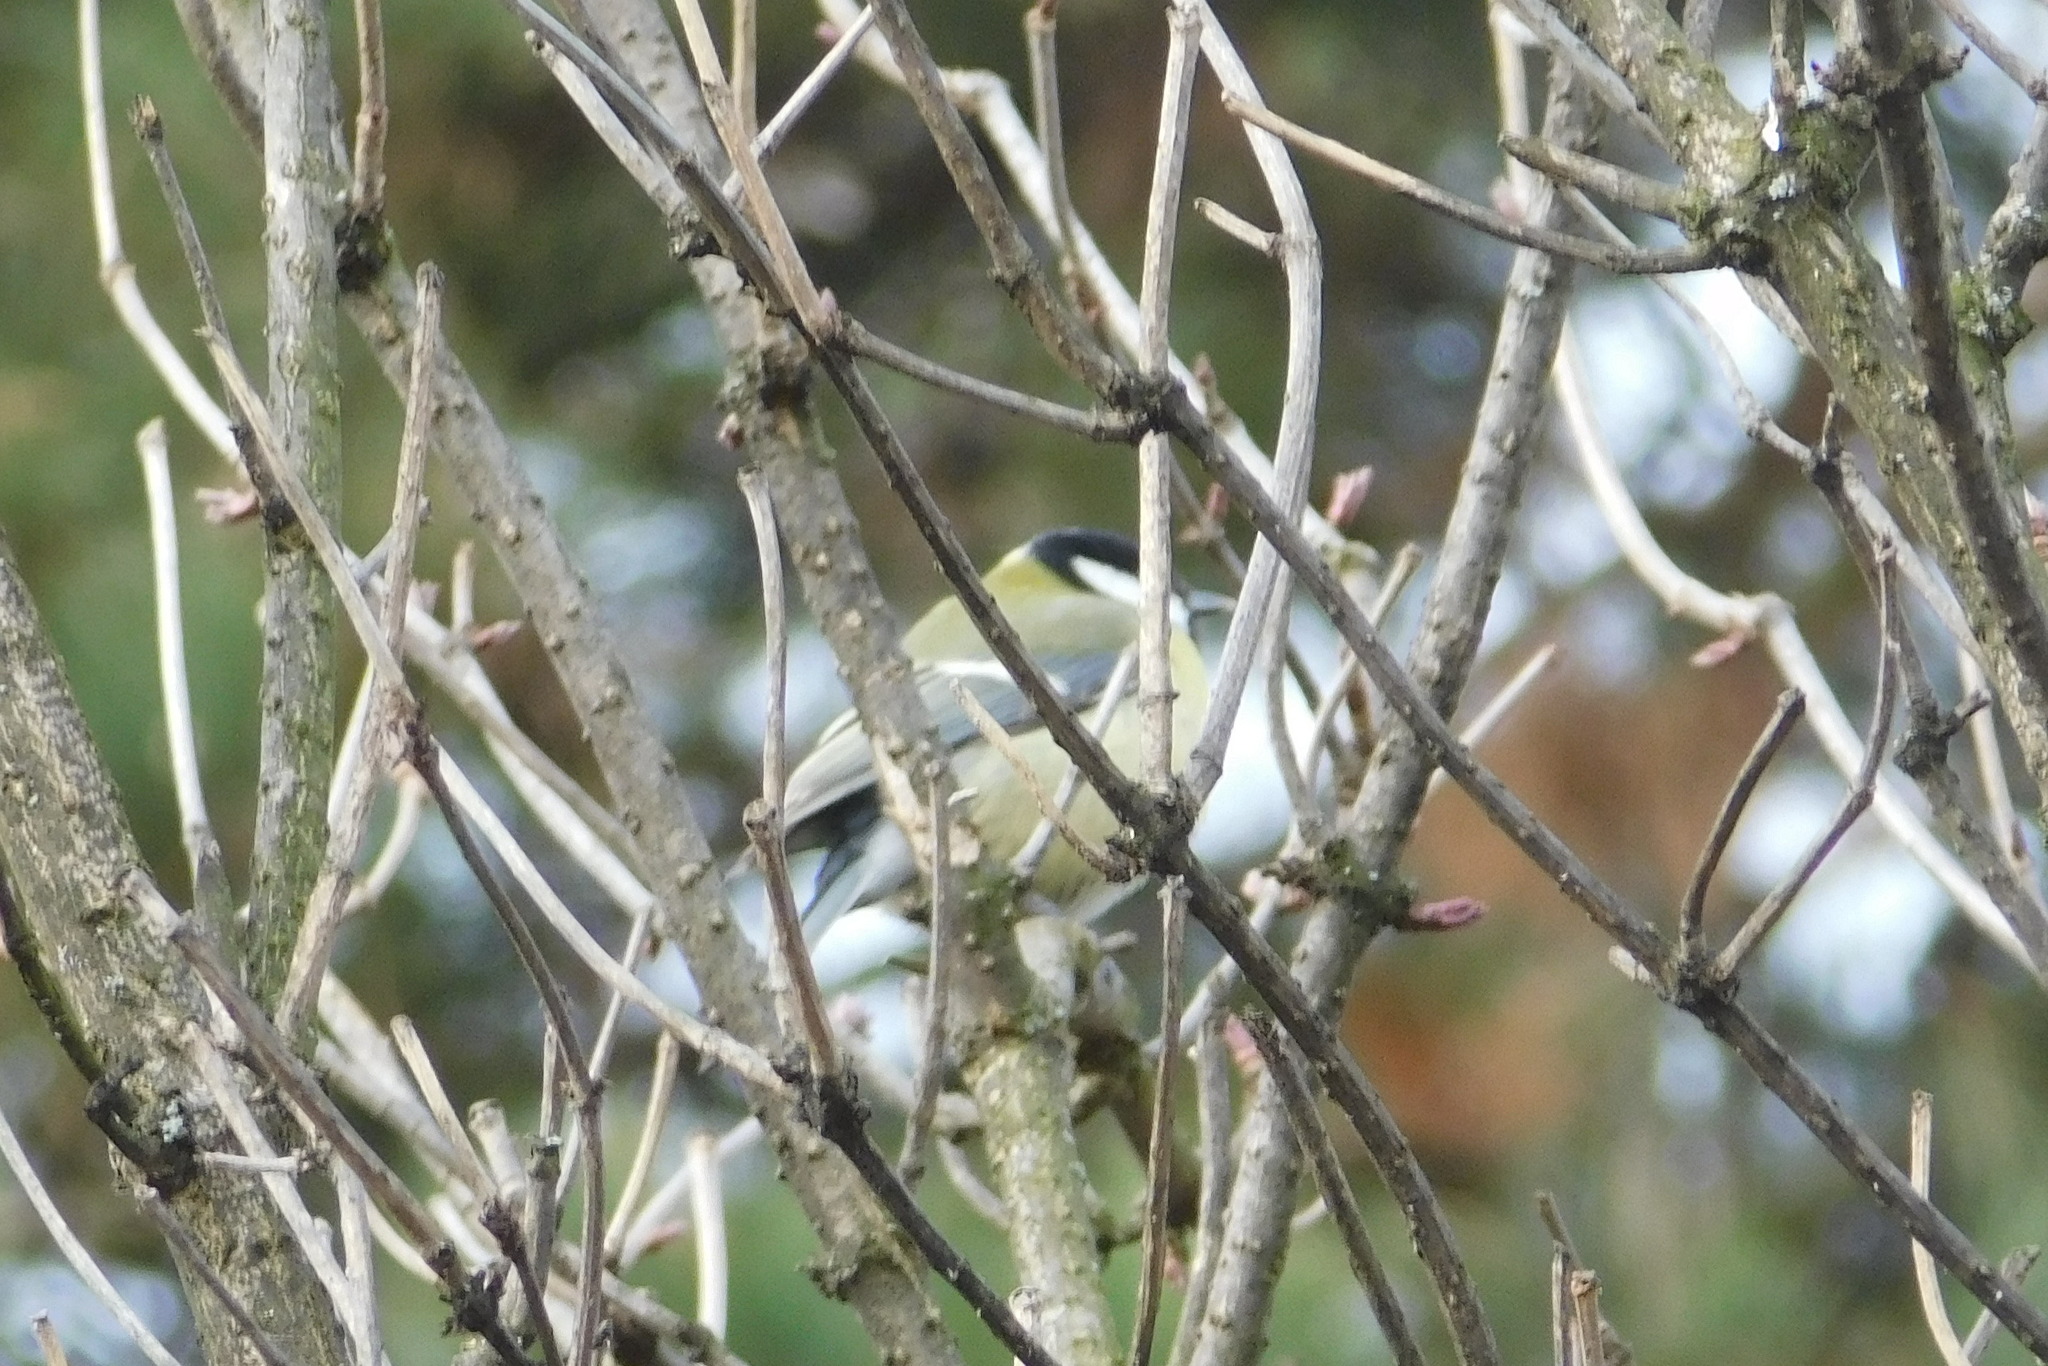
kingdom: Animalia
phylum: Chordata
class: Aves
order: Passeriformes
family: Paridae
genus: Parus
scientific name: Parus major
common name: Great tit
